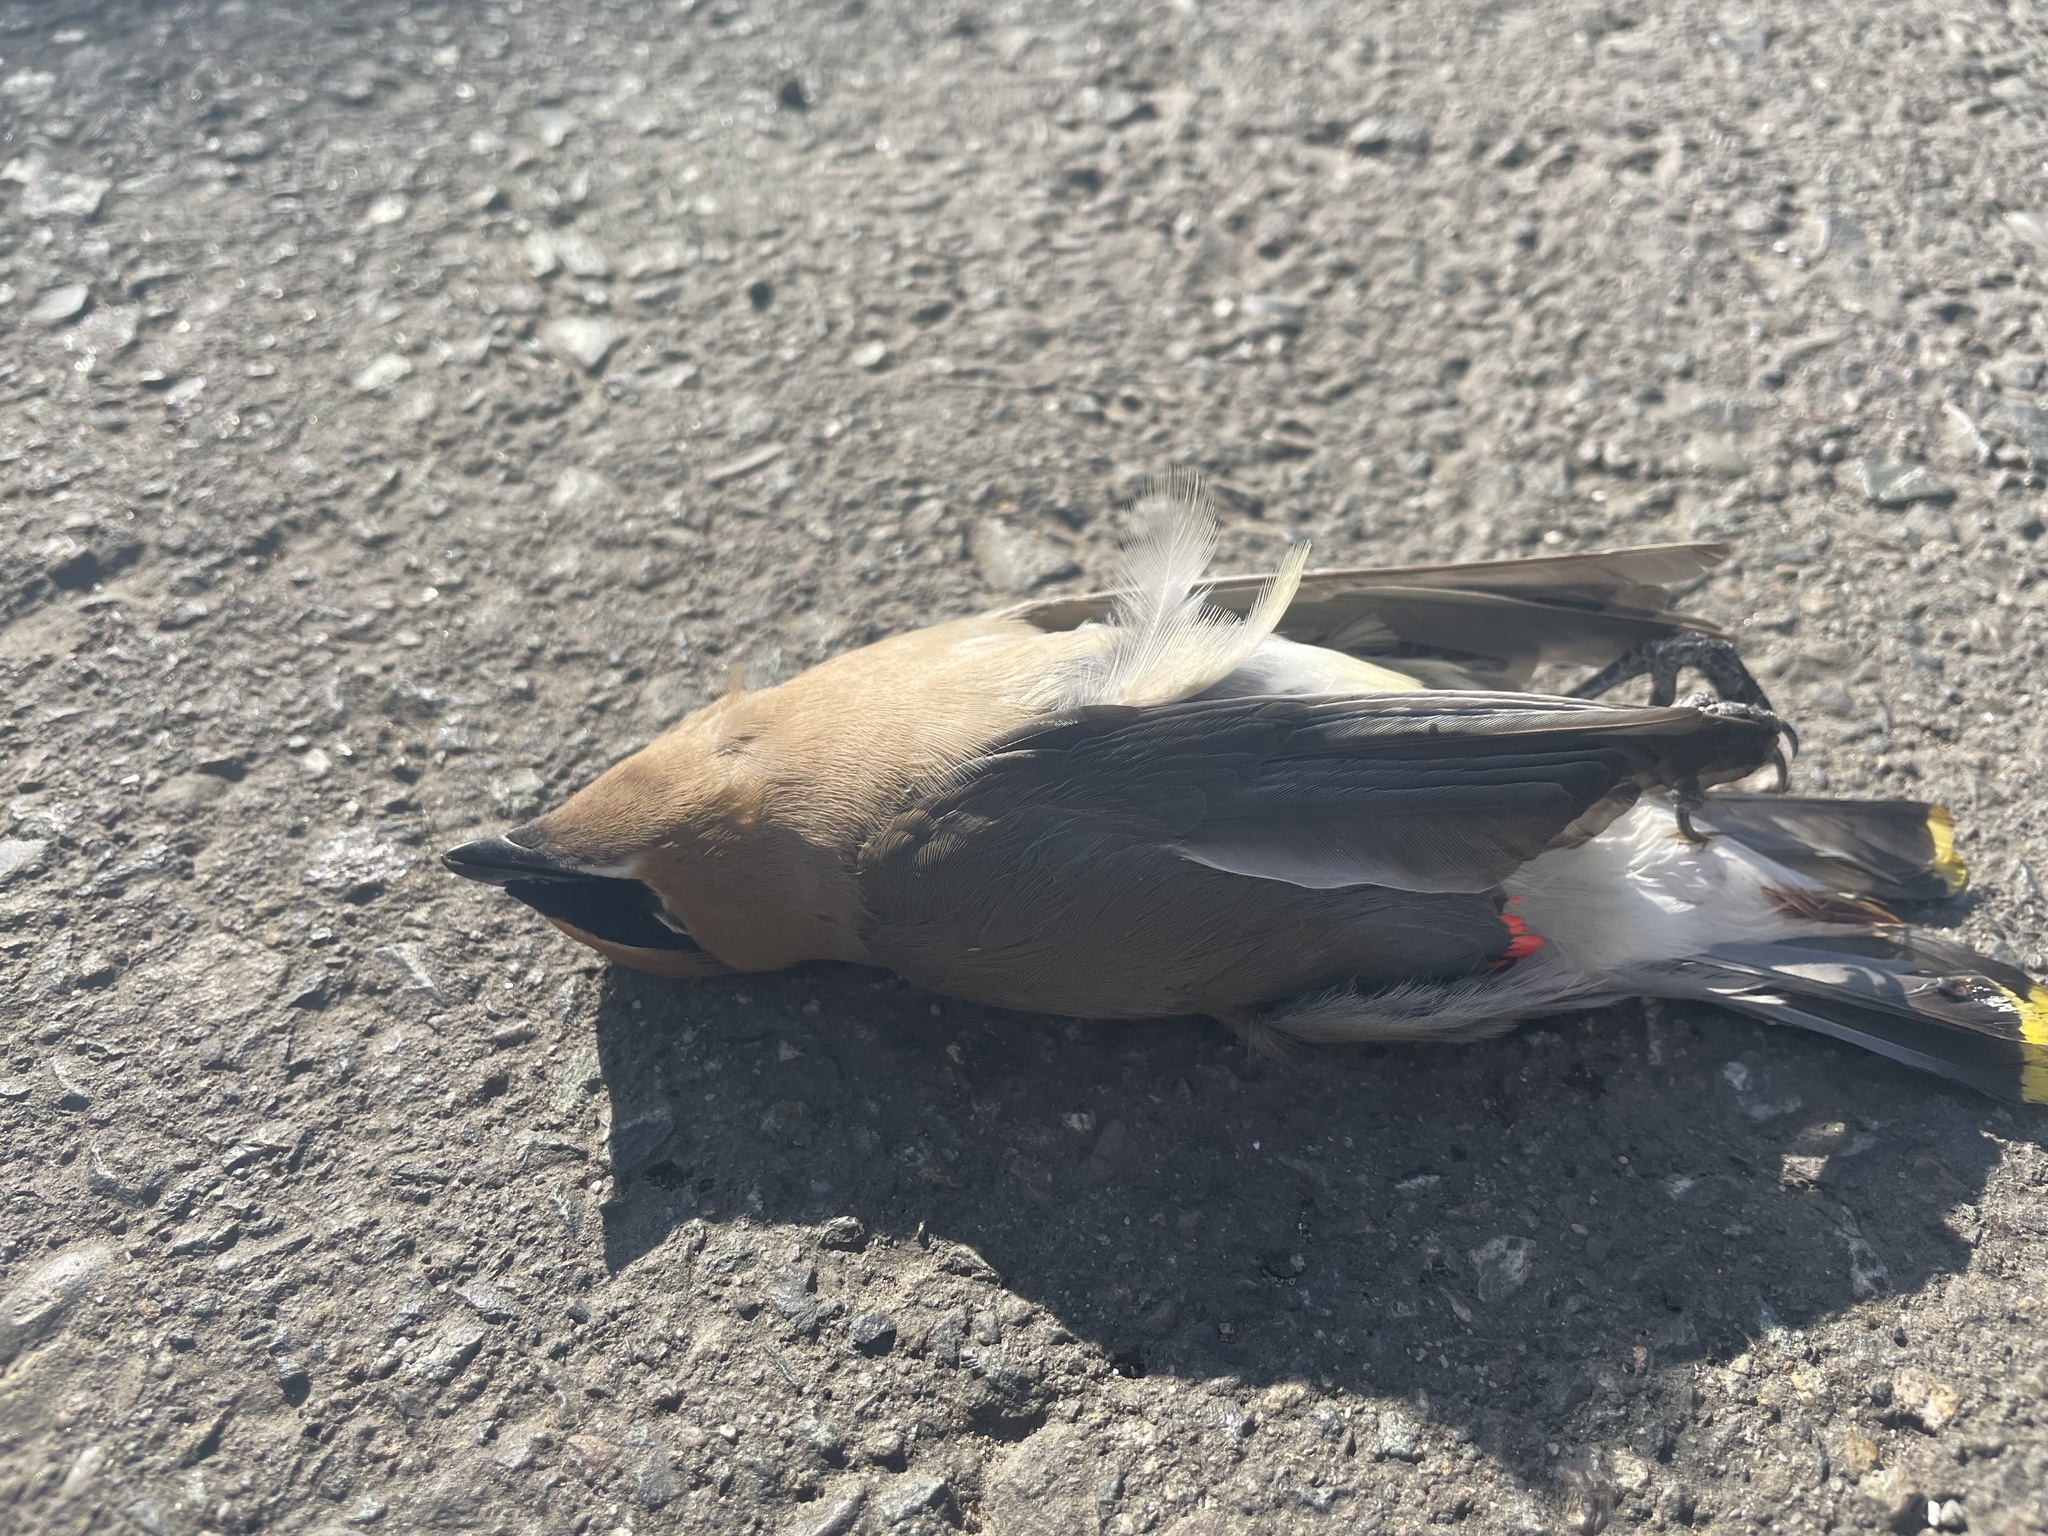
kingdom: Animalia
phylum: Chordata
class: Aves
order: Passeriformes
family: Bombycillidae
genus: Bombycilla
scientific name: Bombycilla cedrorum
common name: Cedar waxwing
